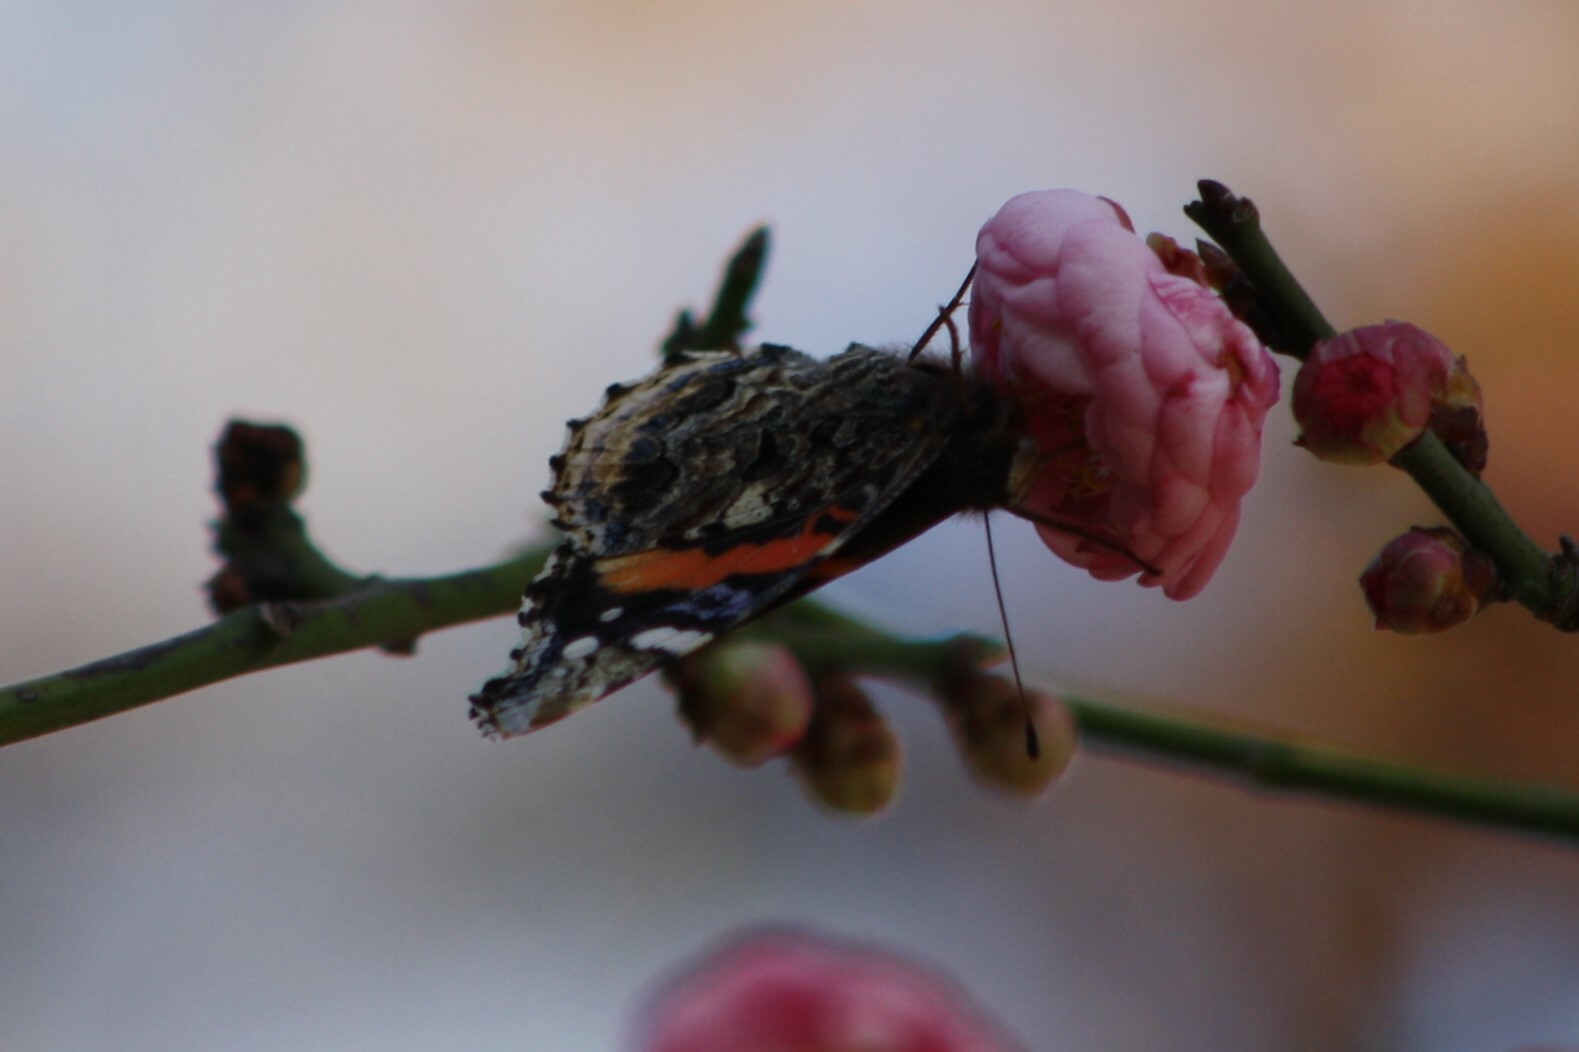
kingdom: Animalia
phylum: Arthropoda
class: Insecta
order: Lepidoptera
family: Nymphalidae
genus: Vanessa
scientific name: Vanessa atalanta
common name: Red admiral
